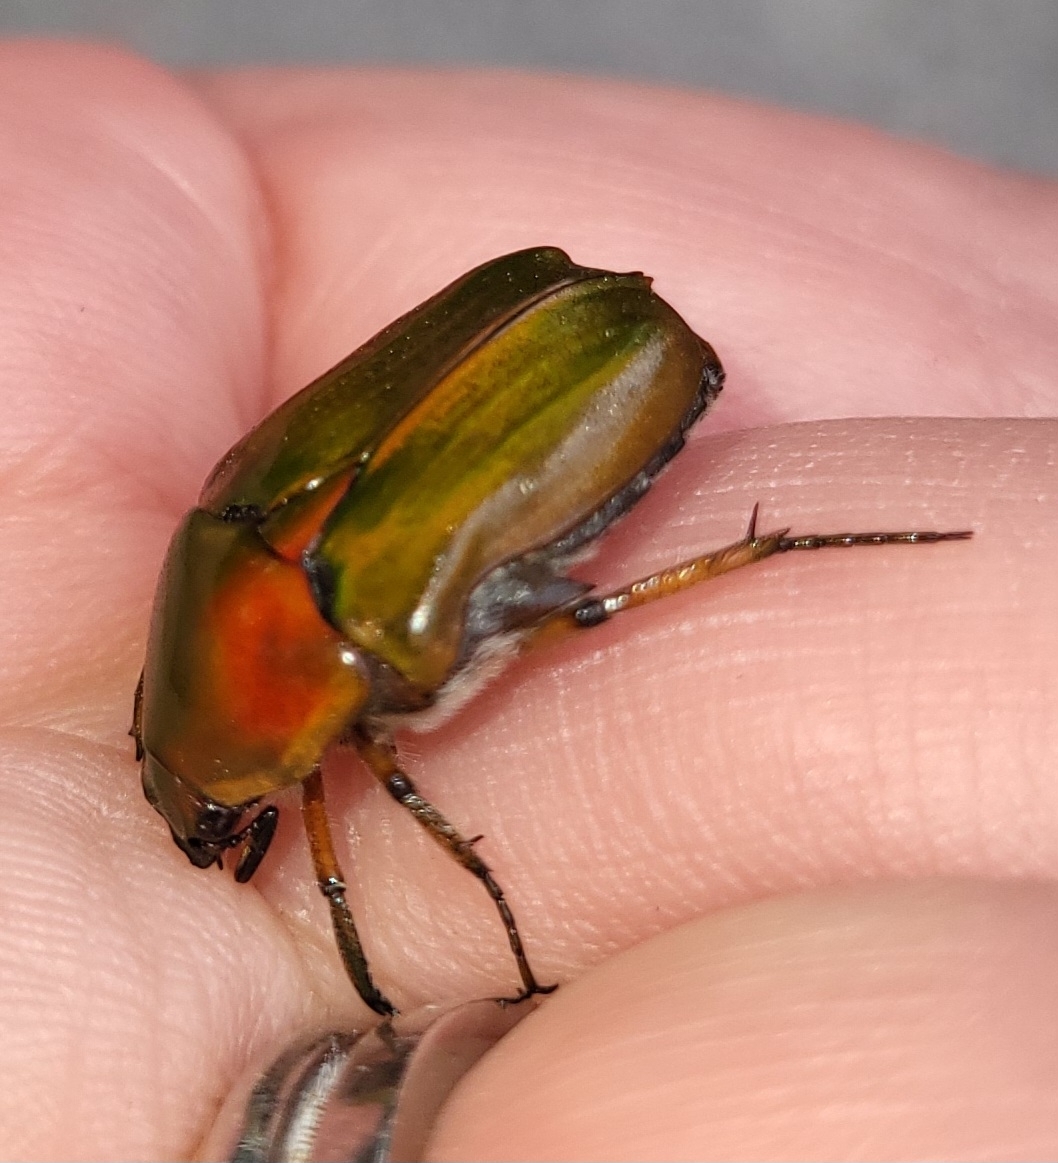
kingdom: Animalia
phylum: Arthropoda
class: Insecta
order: Coleoptera
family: Scarabaeidae
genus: Euphoria
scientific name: Euphoria fulgida
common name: Emerald euphoria
